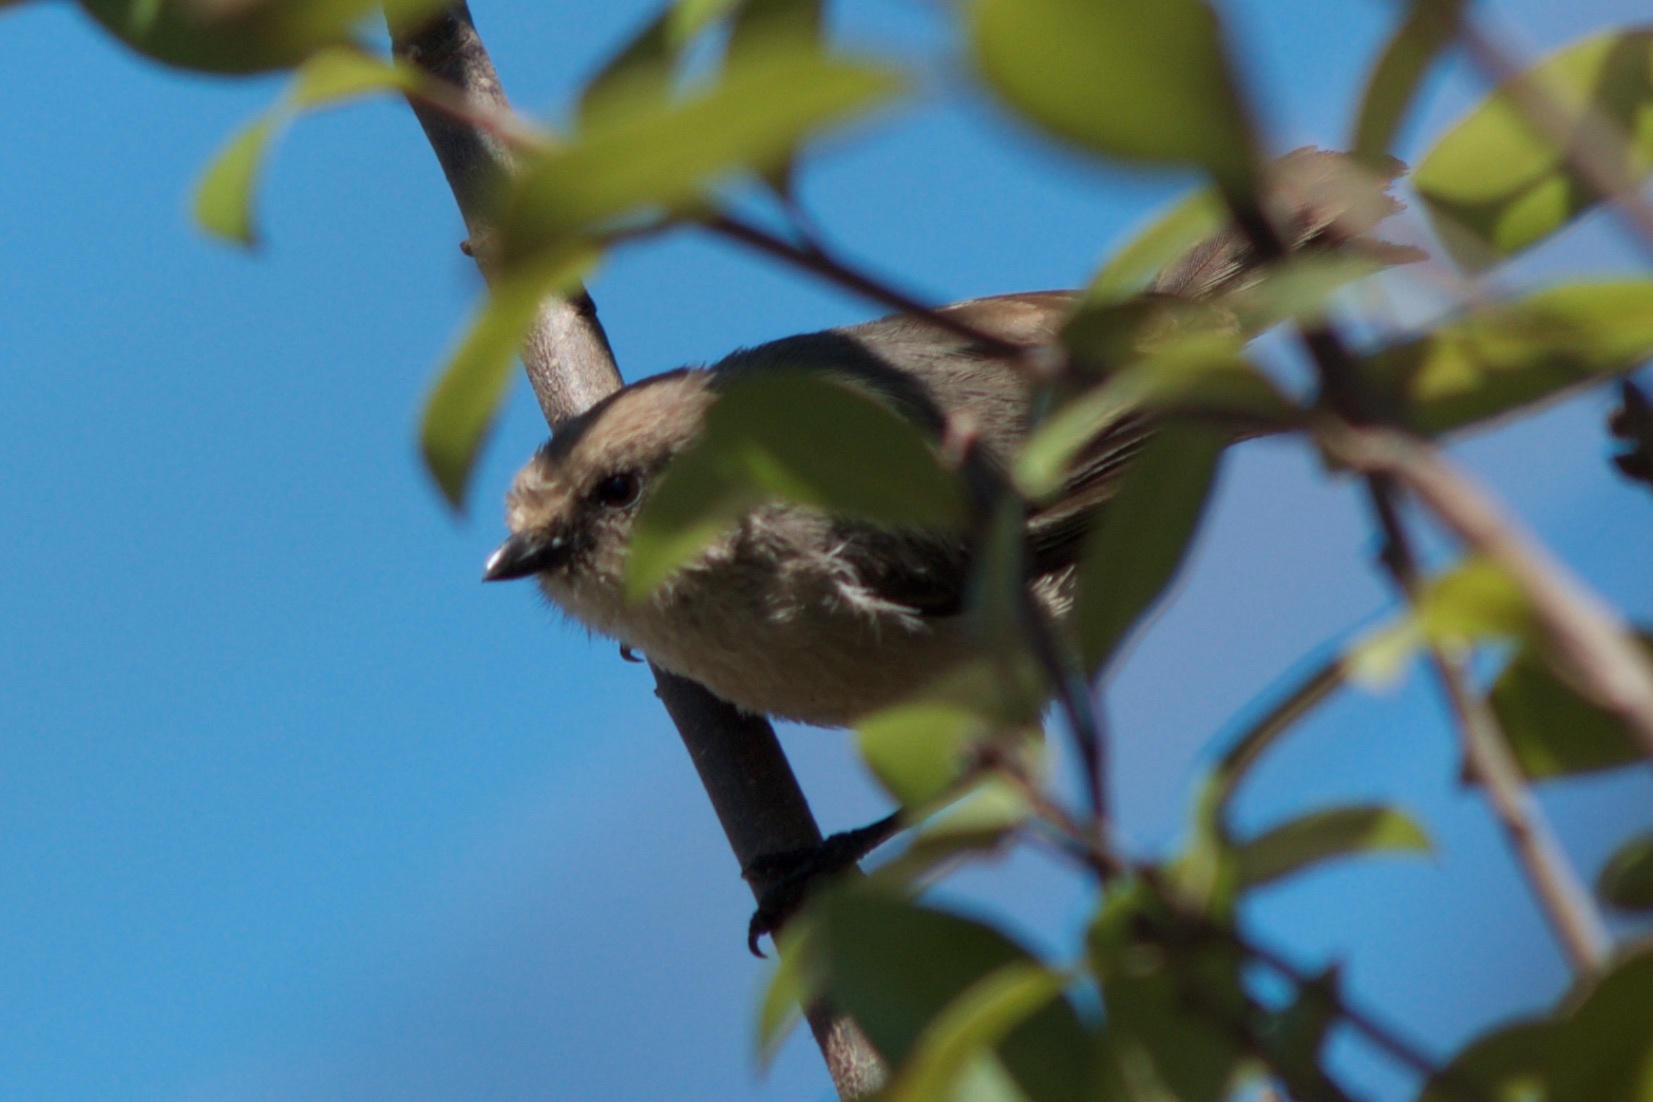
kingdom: Animalia
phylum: Chordata
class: Aves
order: Passeriformes
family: Aegithalidae
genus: Psaltriparus
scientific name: Psaltriparus minimus
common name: American bushtit
